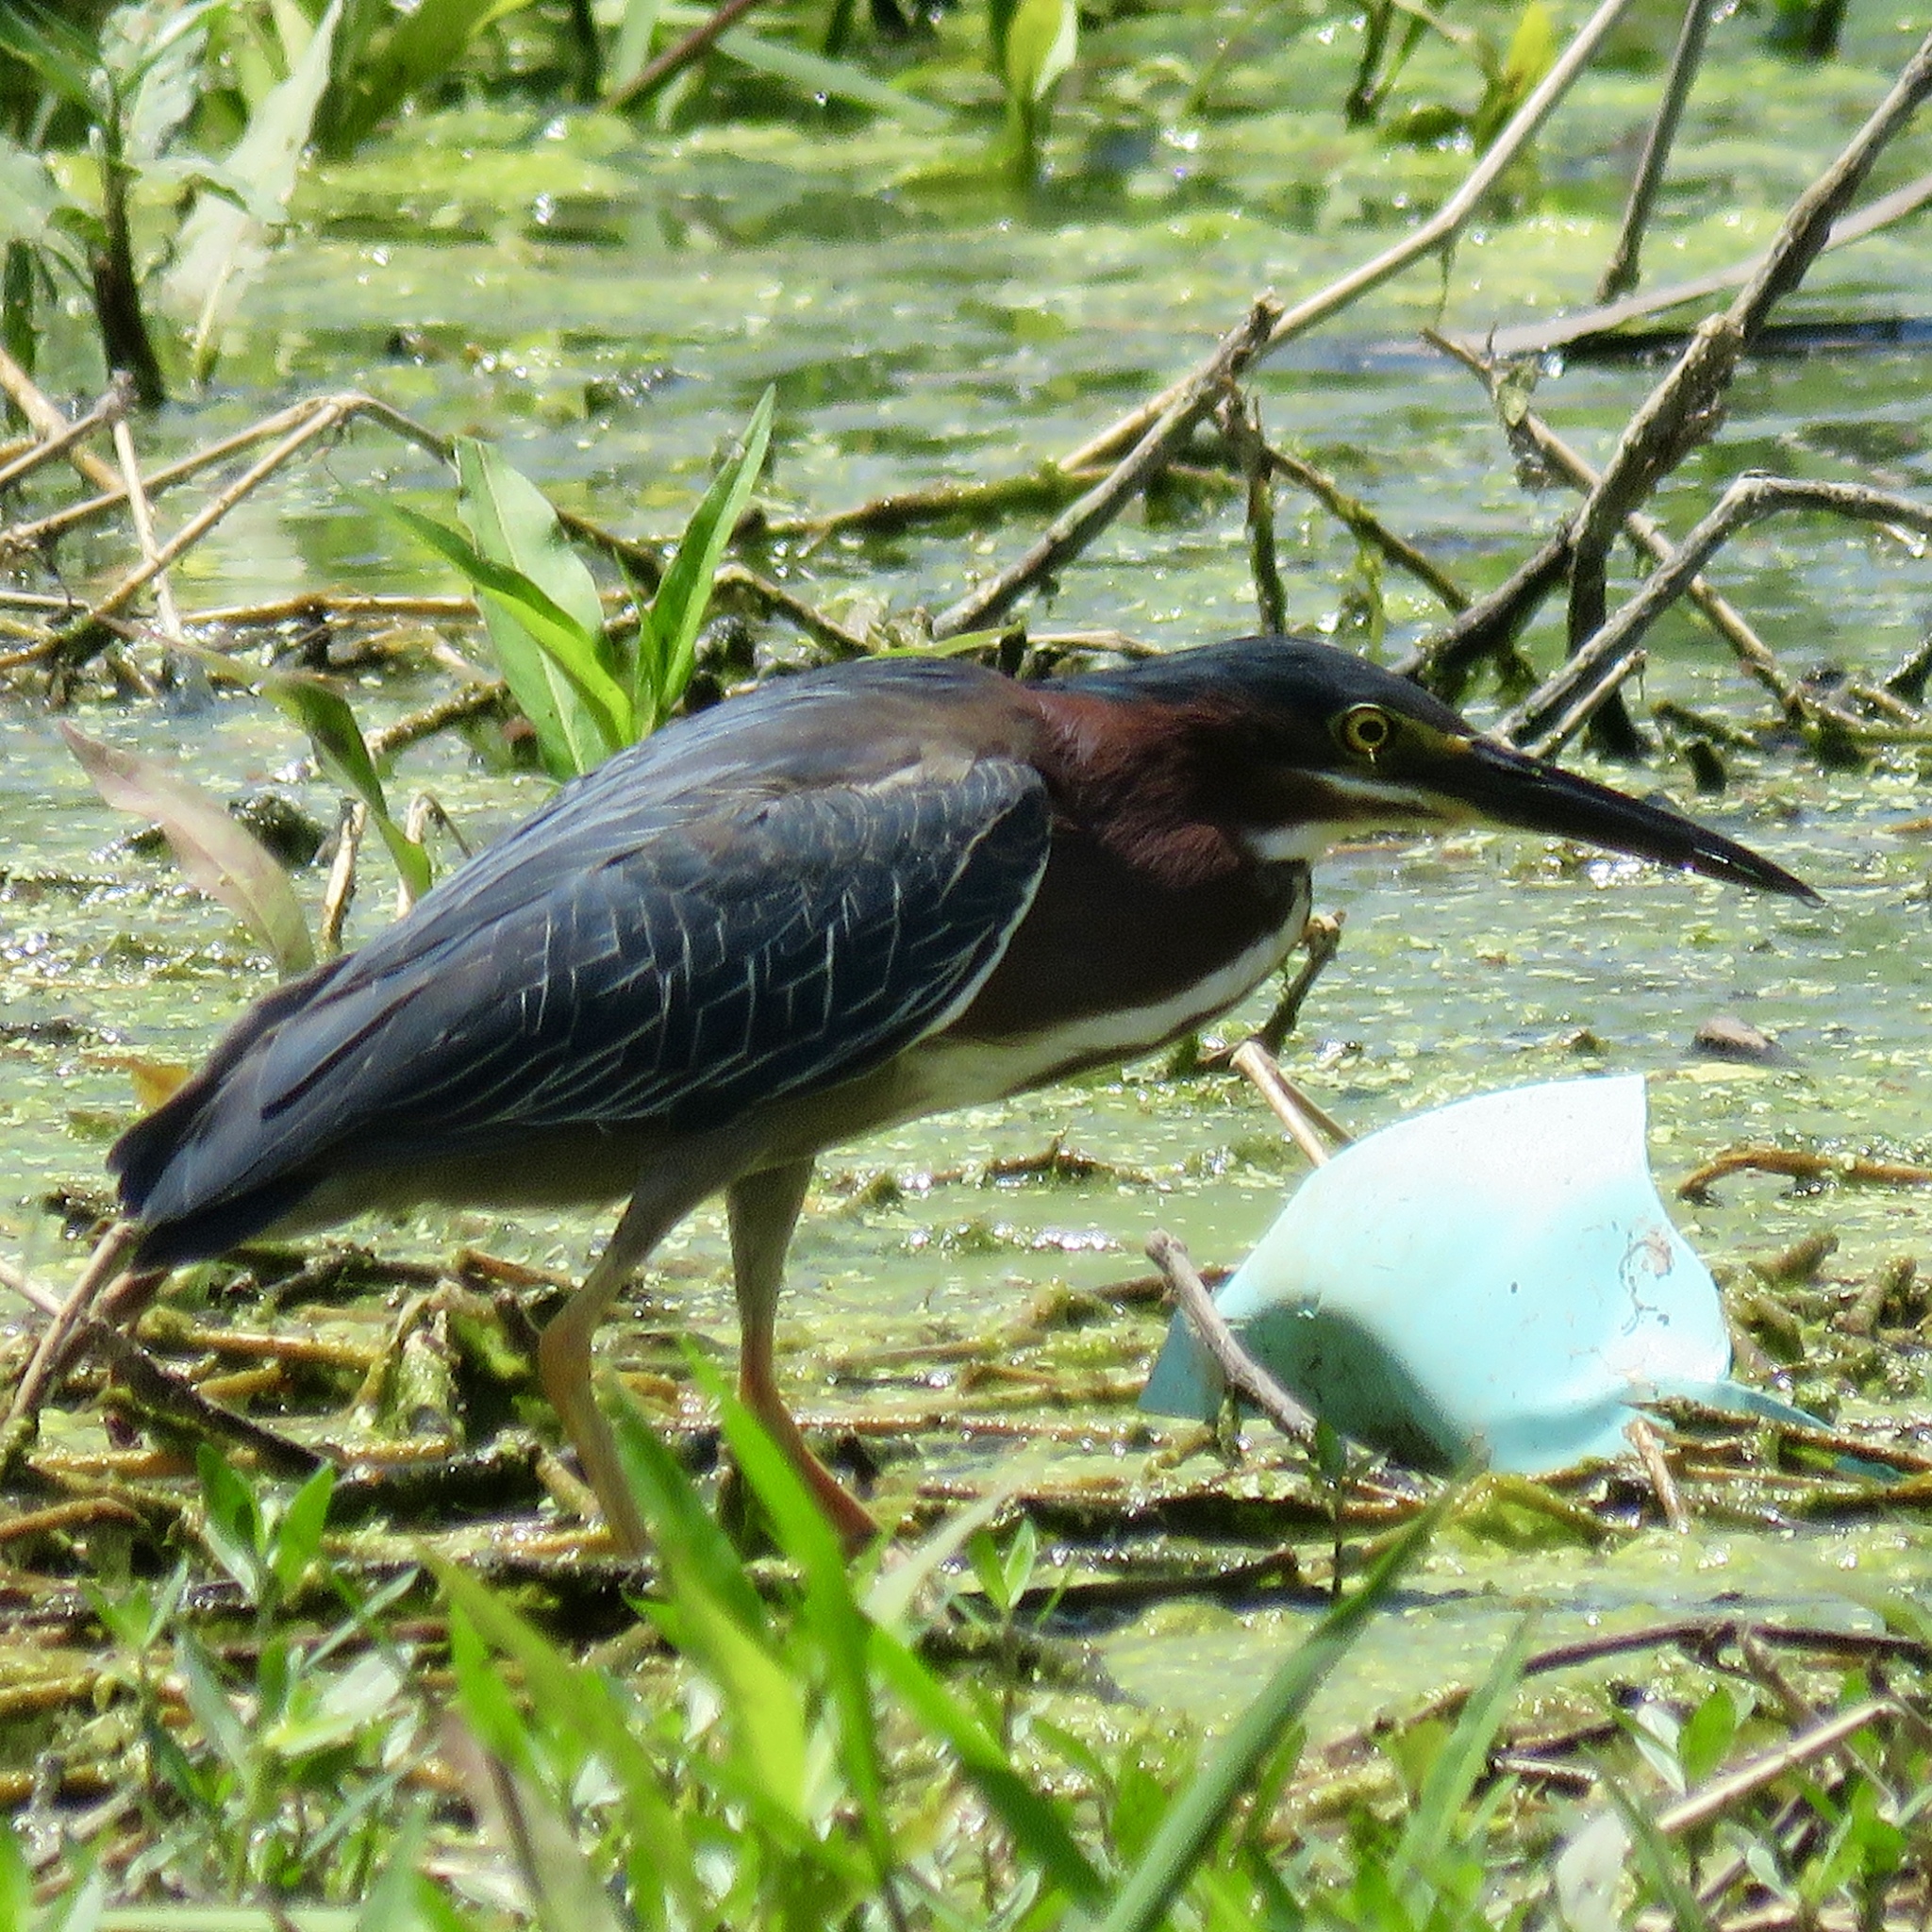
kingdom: Animalia
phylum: Chordata
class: Aves
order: Pelecaniformes
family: Ardeidae
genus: Butorides
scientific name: Butorides virescens
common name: Green heron
